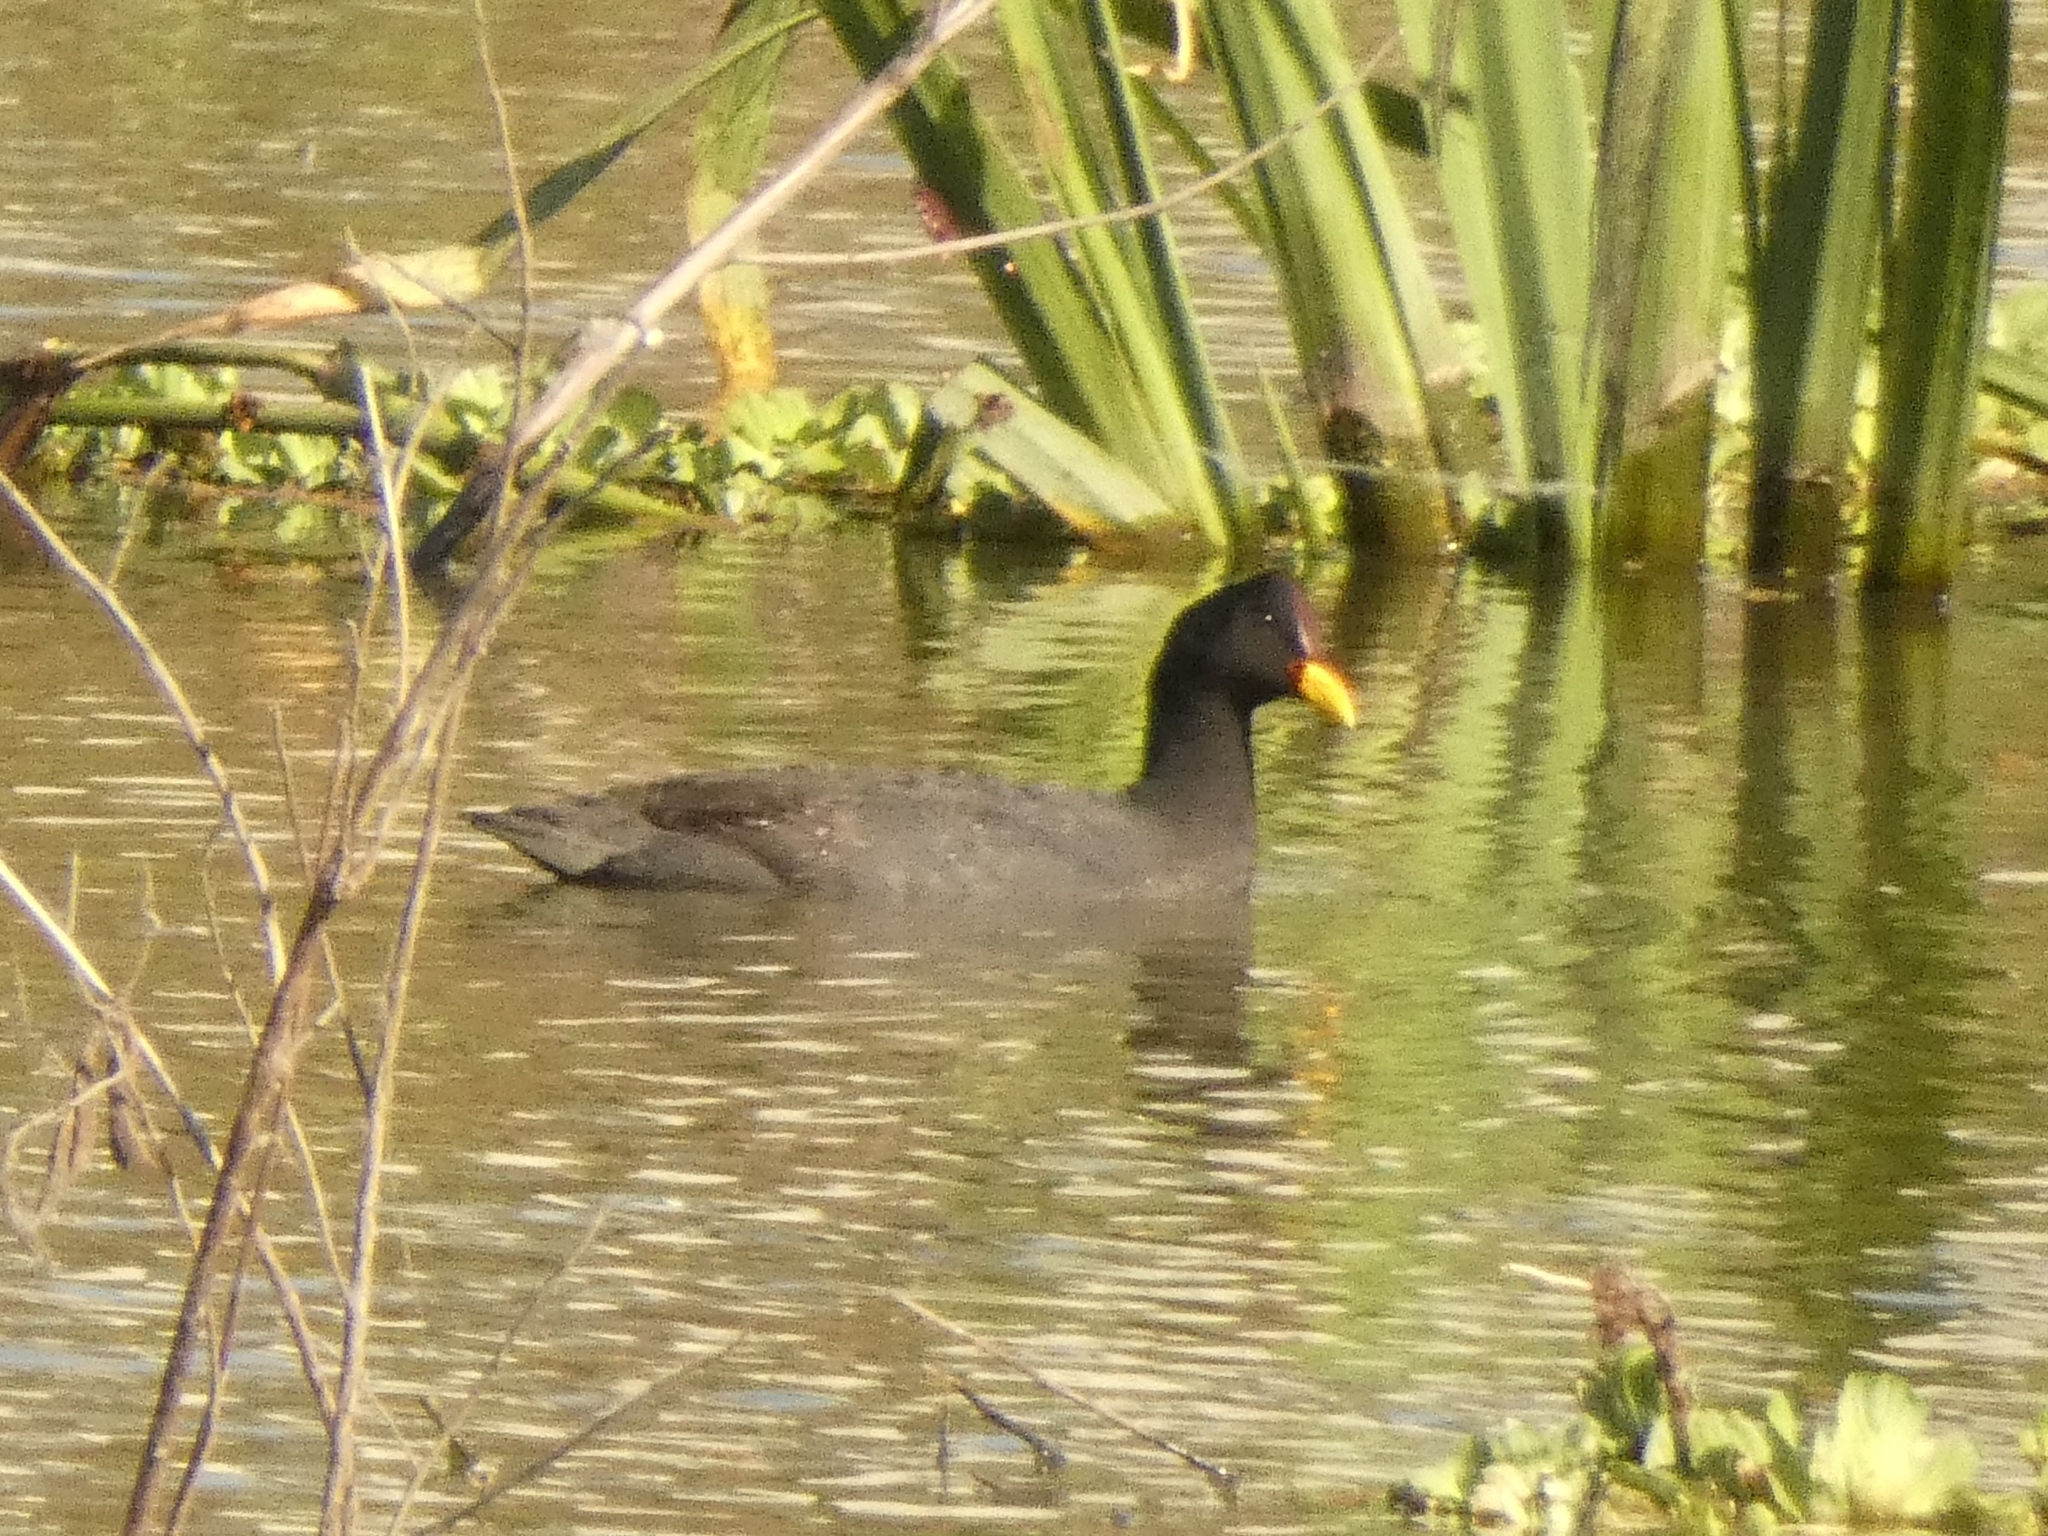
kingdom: Animalia
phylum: Chordata
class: Aves
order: Gruiformes
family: Rallidae
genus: Fulica
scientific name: Fulica rufifrons
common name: Red-fronted coot
